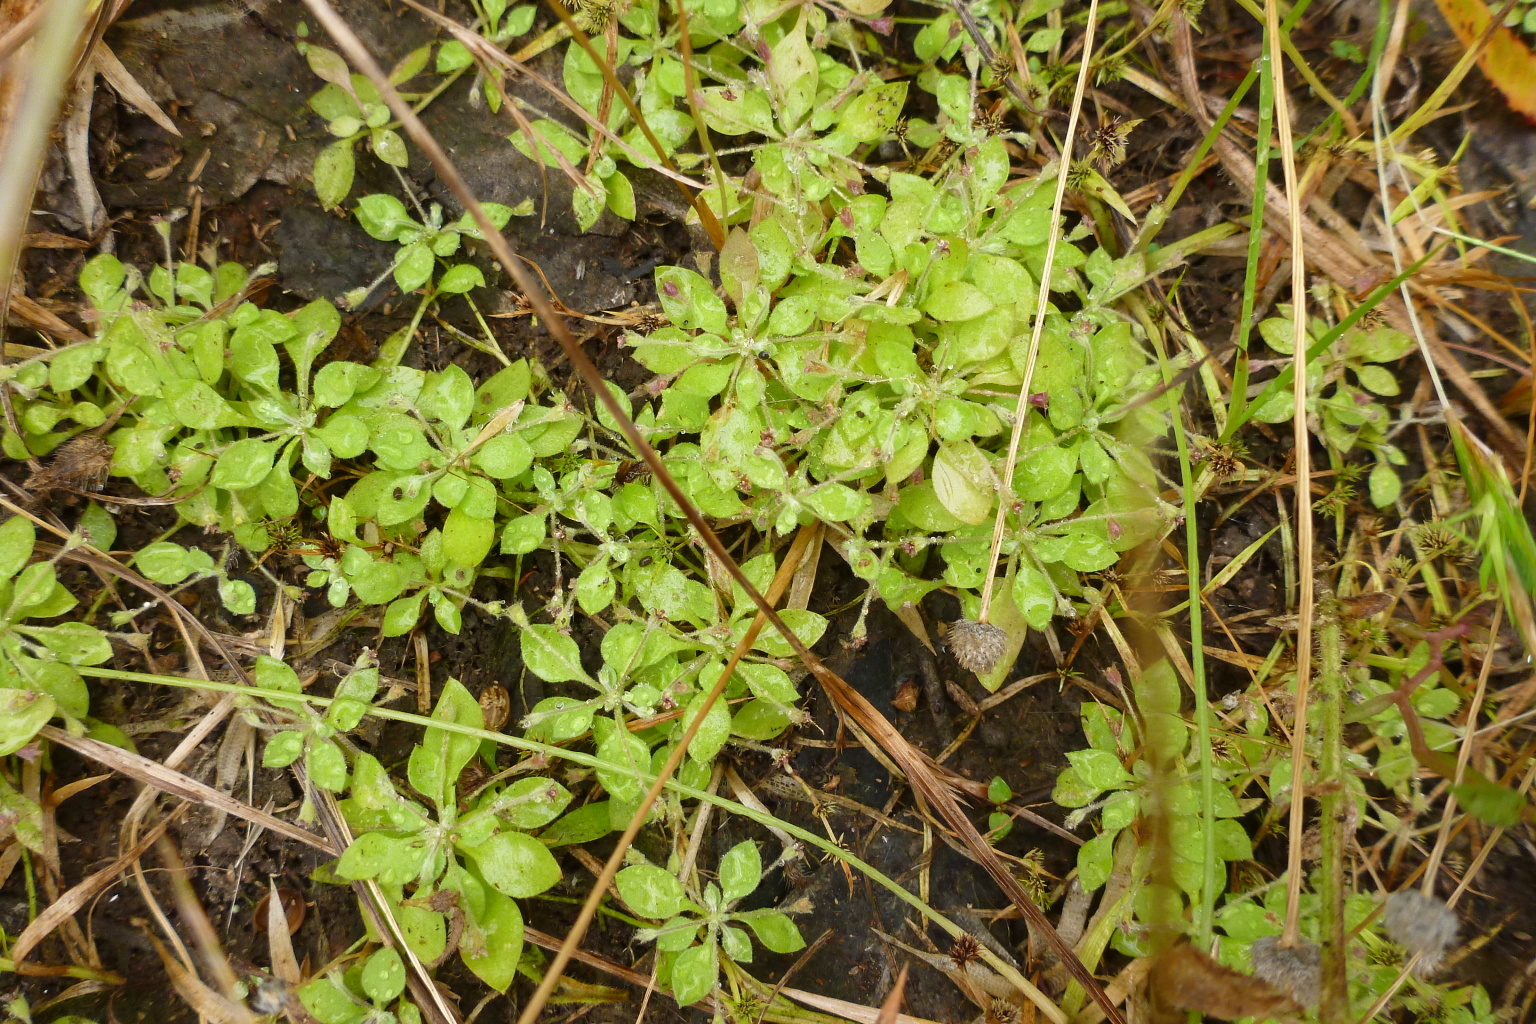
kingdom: Plantae
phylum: Tracheophyta
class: Magnoliopsida
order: Asterales
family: Goodeniaceae
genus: Goodenia
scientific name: Goodenia pumilio
